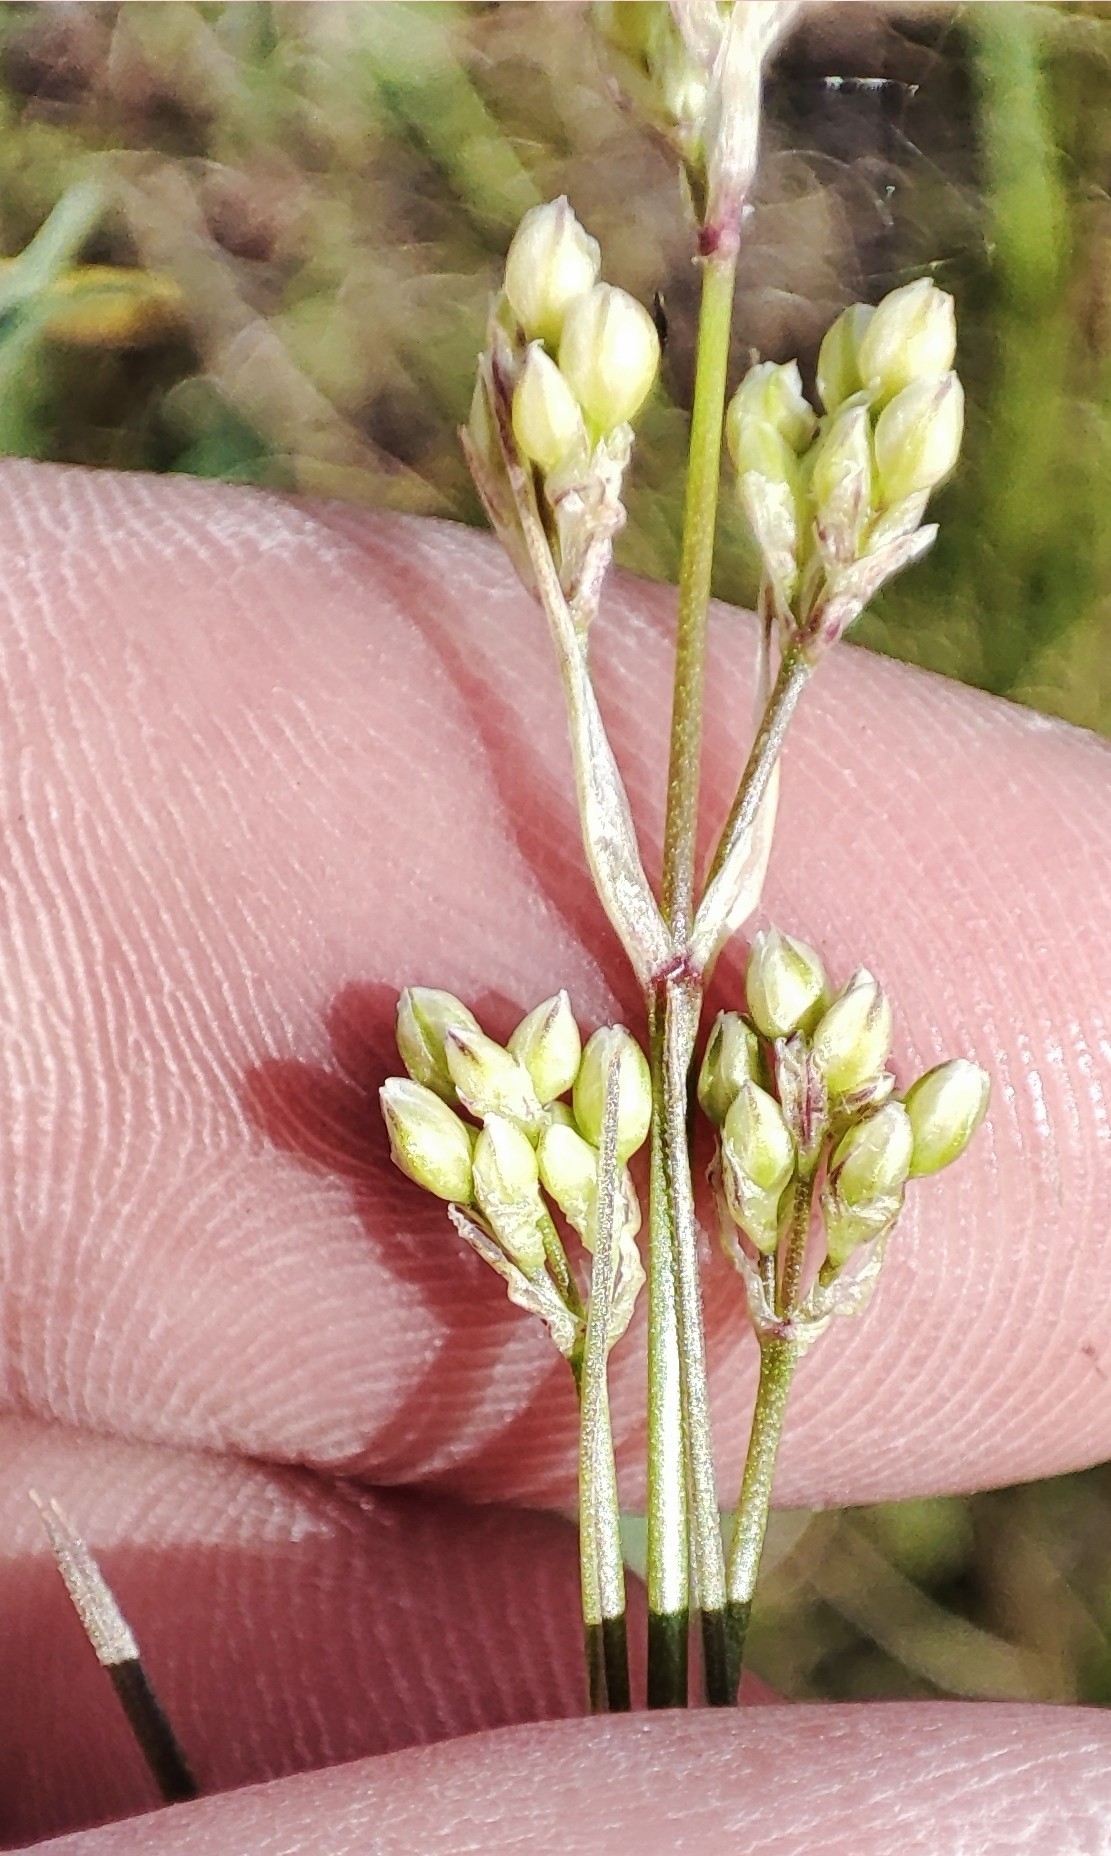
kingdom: Plantae
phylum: Tracheophyta
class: Magnoliopsida
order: Caryophyllales
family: Caryophyllaceae
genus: Eremogone
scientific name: Eremogone longifolia
